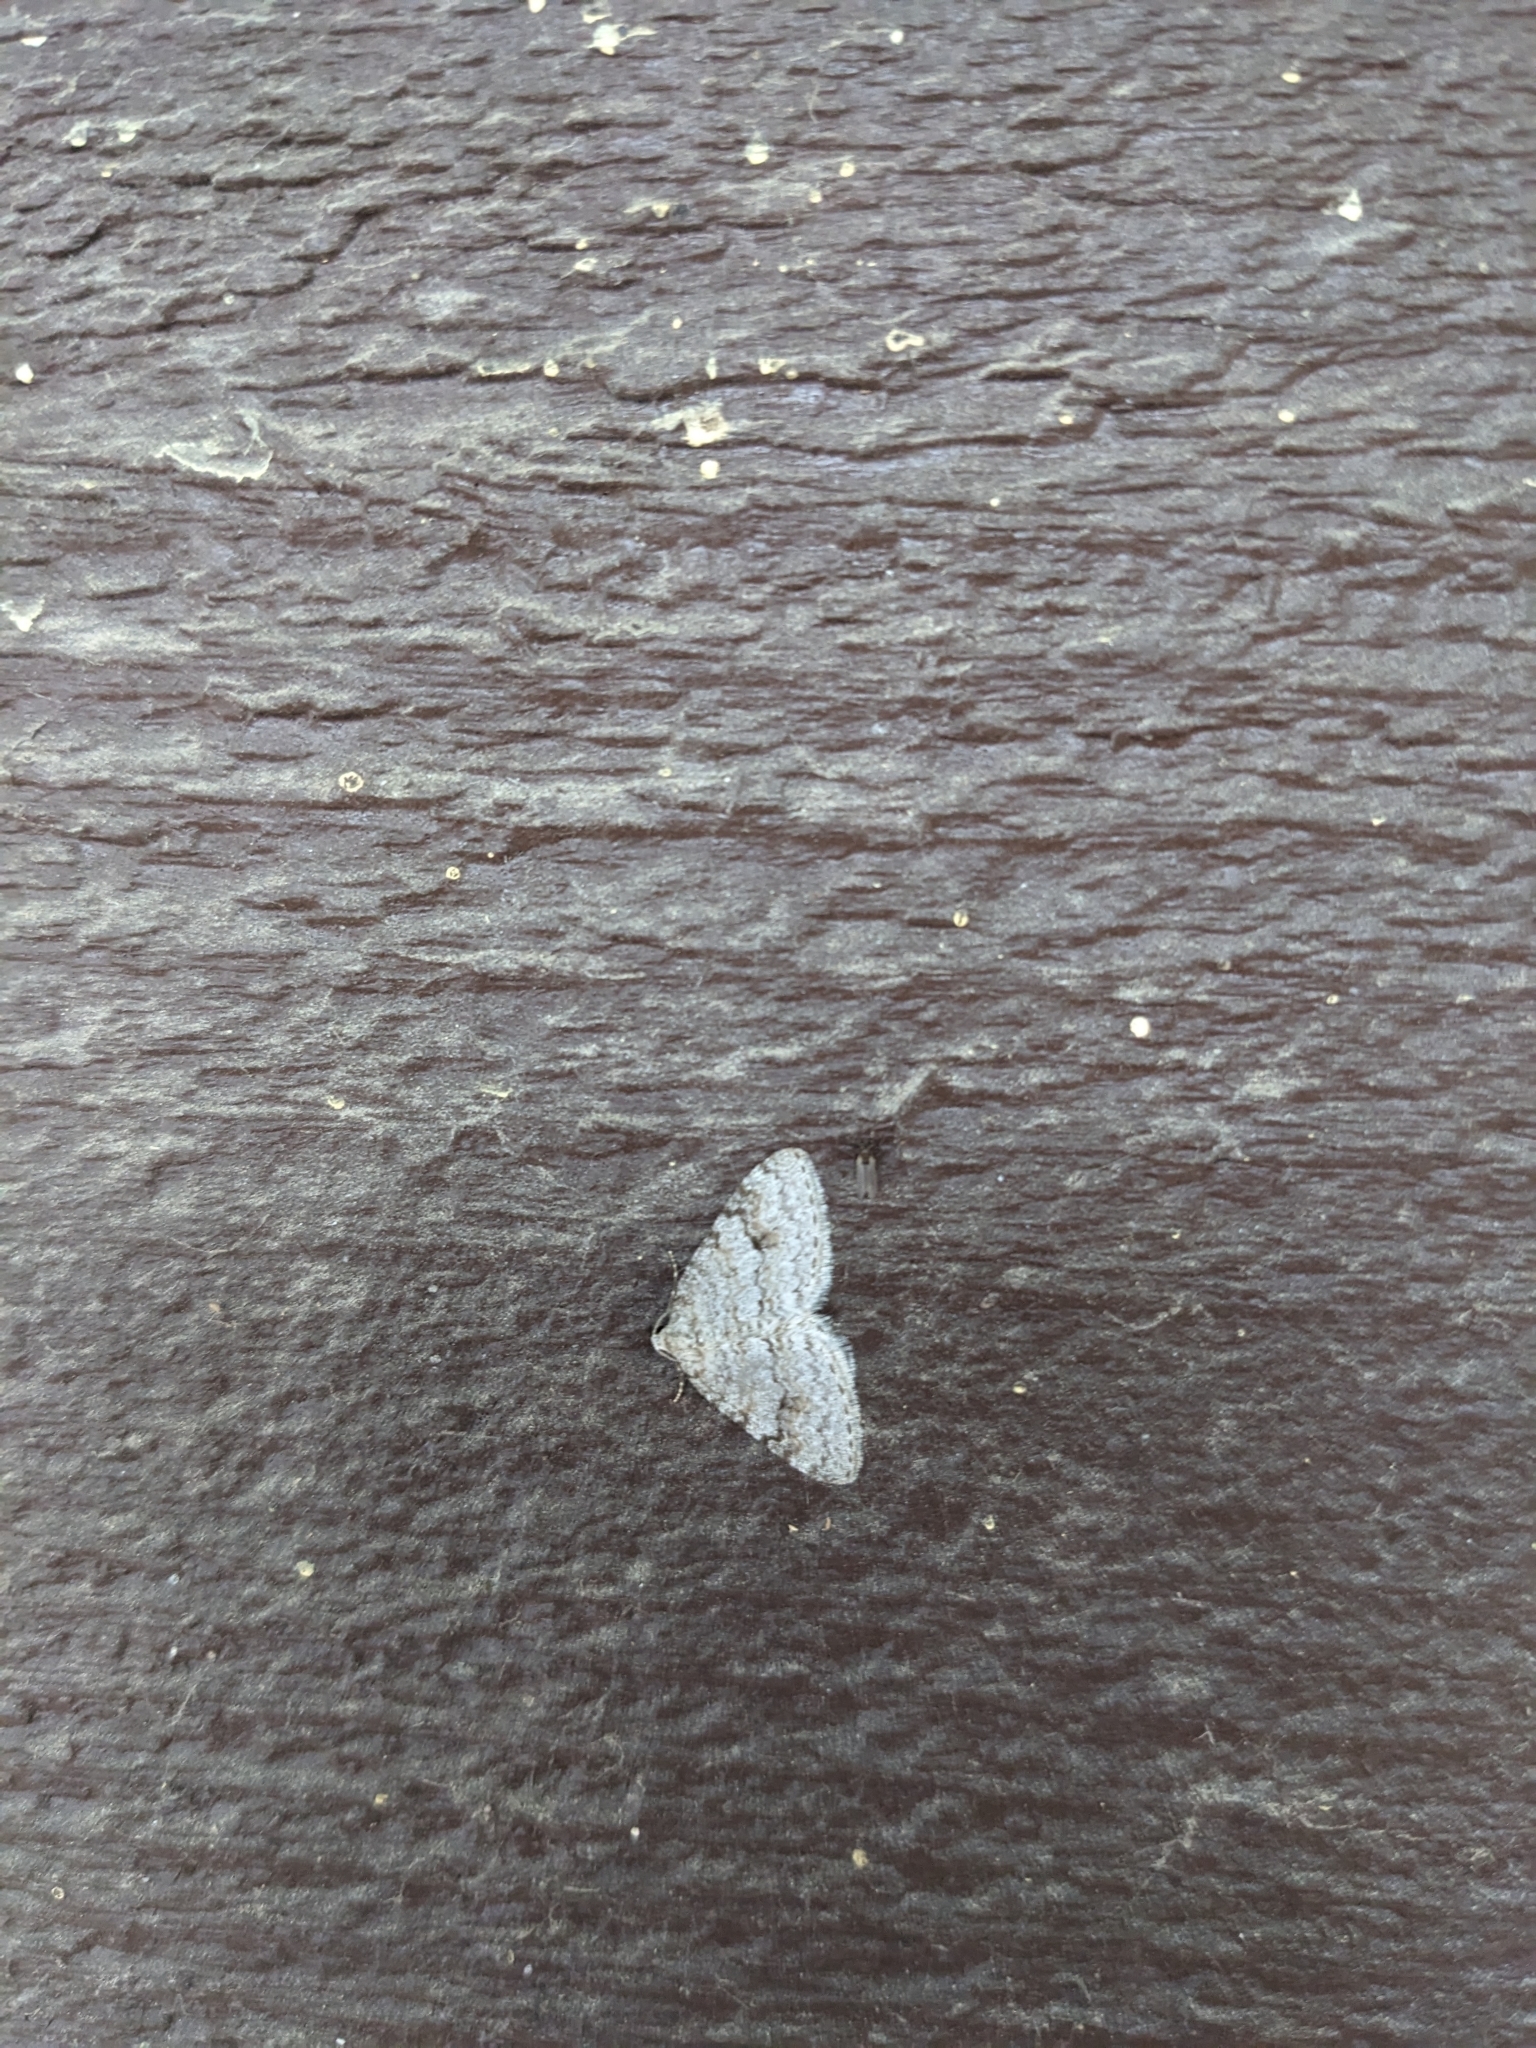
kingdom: Animalia
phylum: Arthropoda
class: Insecta
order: Lepidoptera
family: Geometridae
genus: Venusia
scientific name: Venusia comptaria
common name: Brown-shaded carpet
